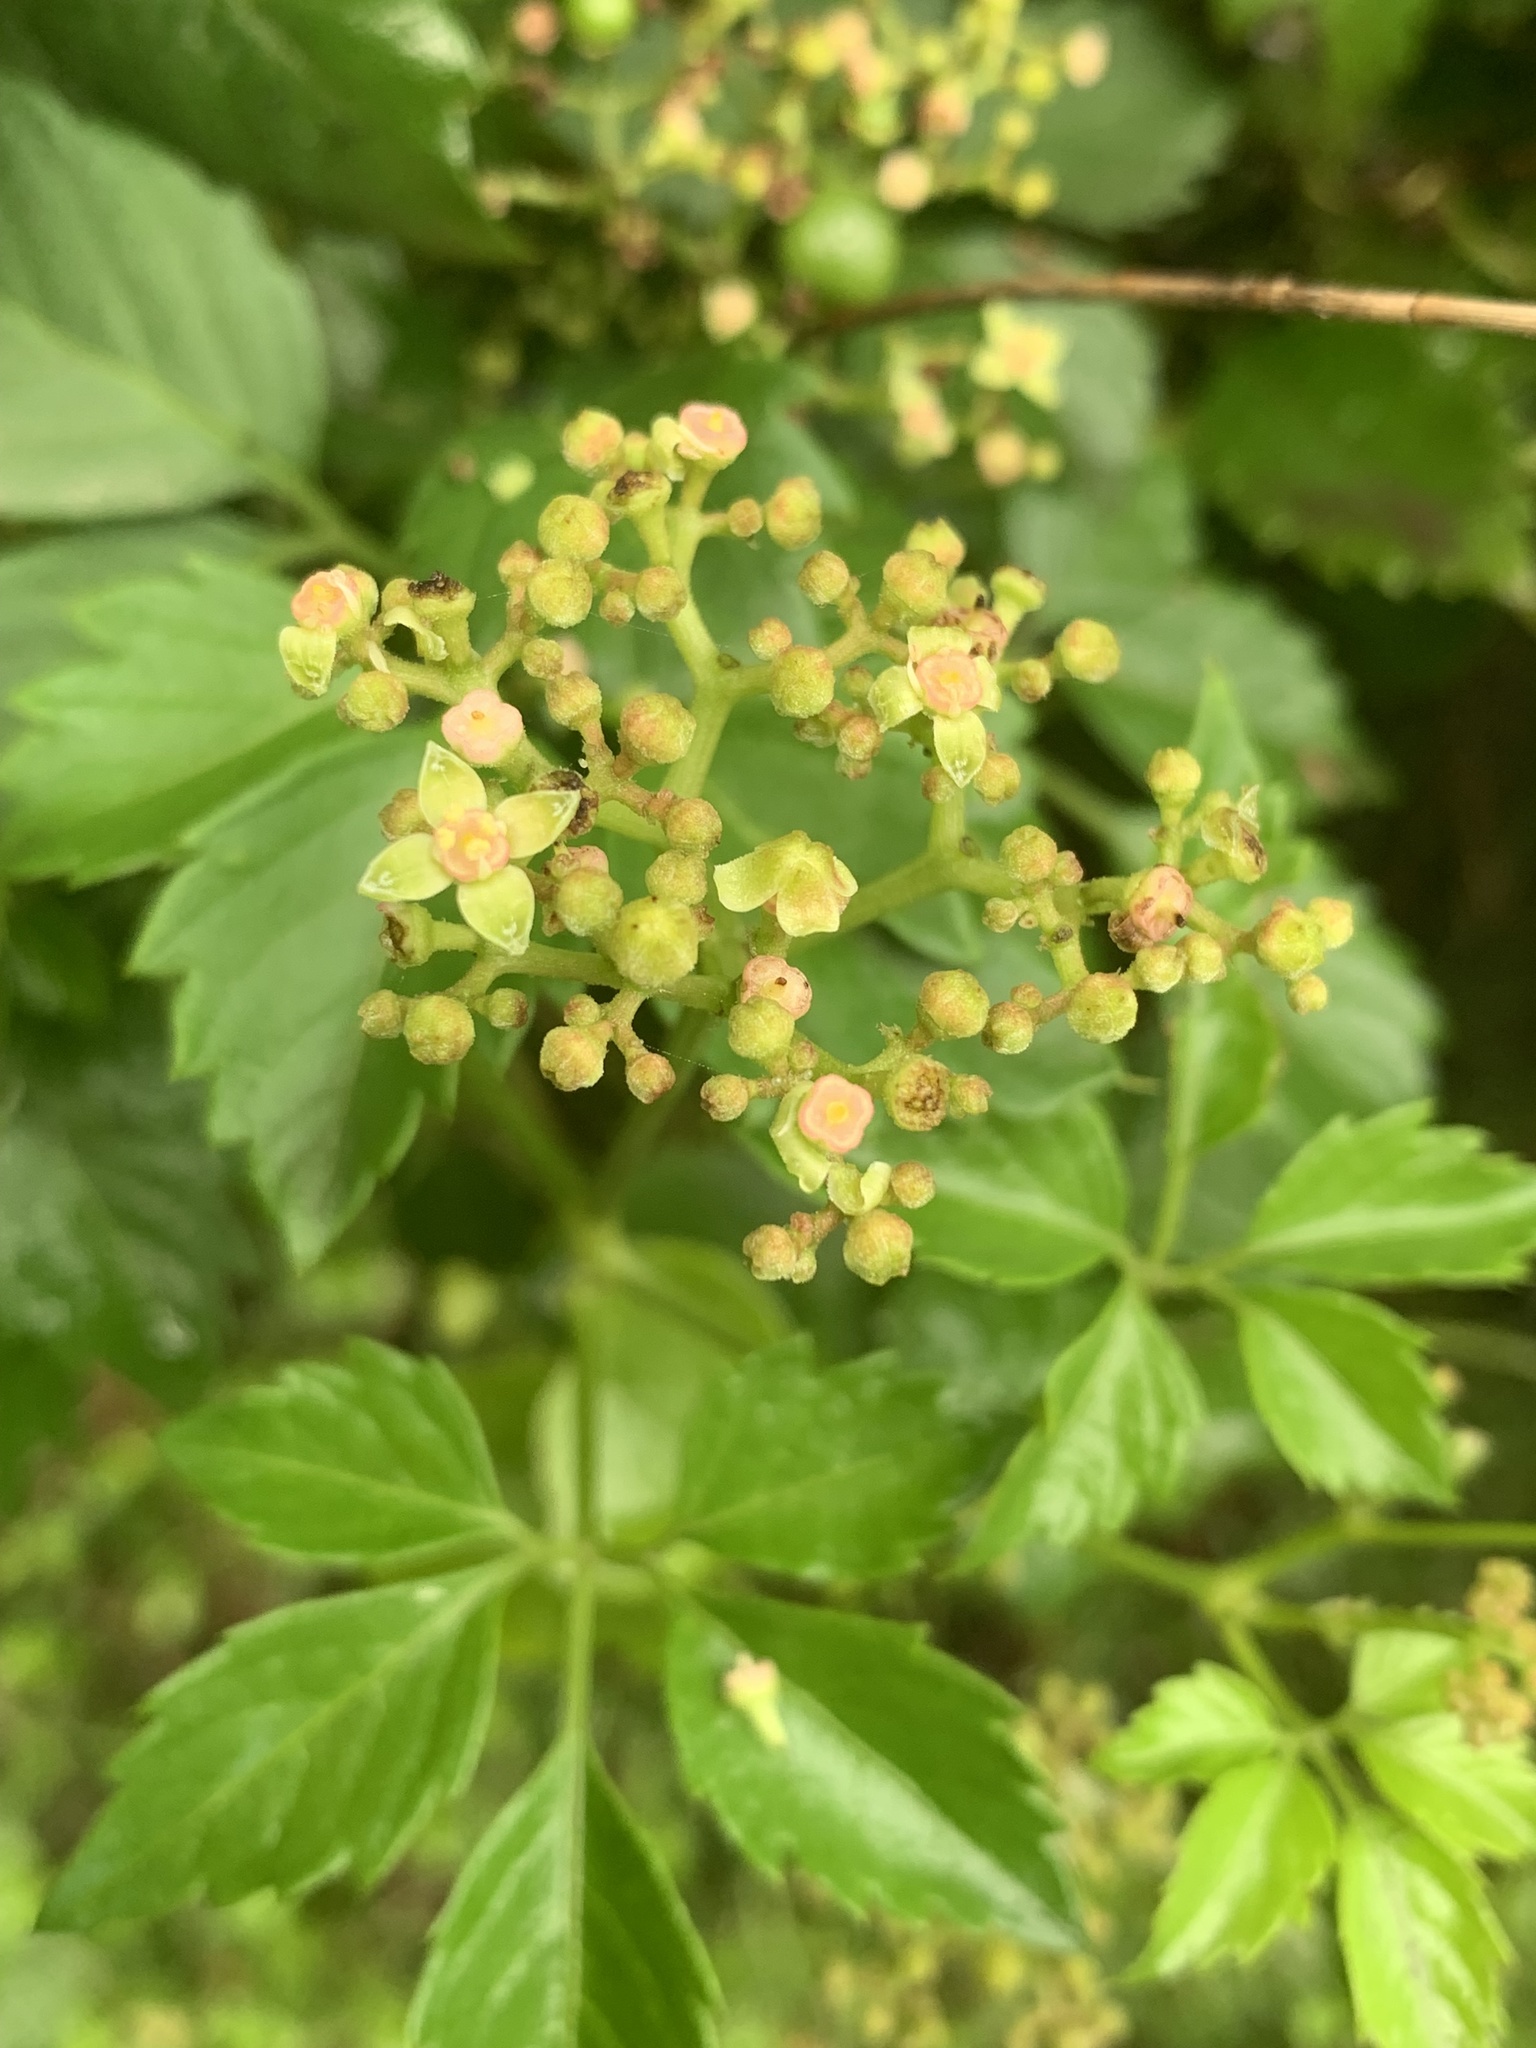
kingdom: Plantae
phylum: Tracheophyta
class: Magnoliopsida
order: Vitales
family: Vitaceae
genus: Causonis
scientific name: Causonis clematidea
